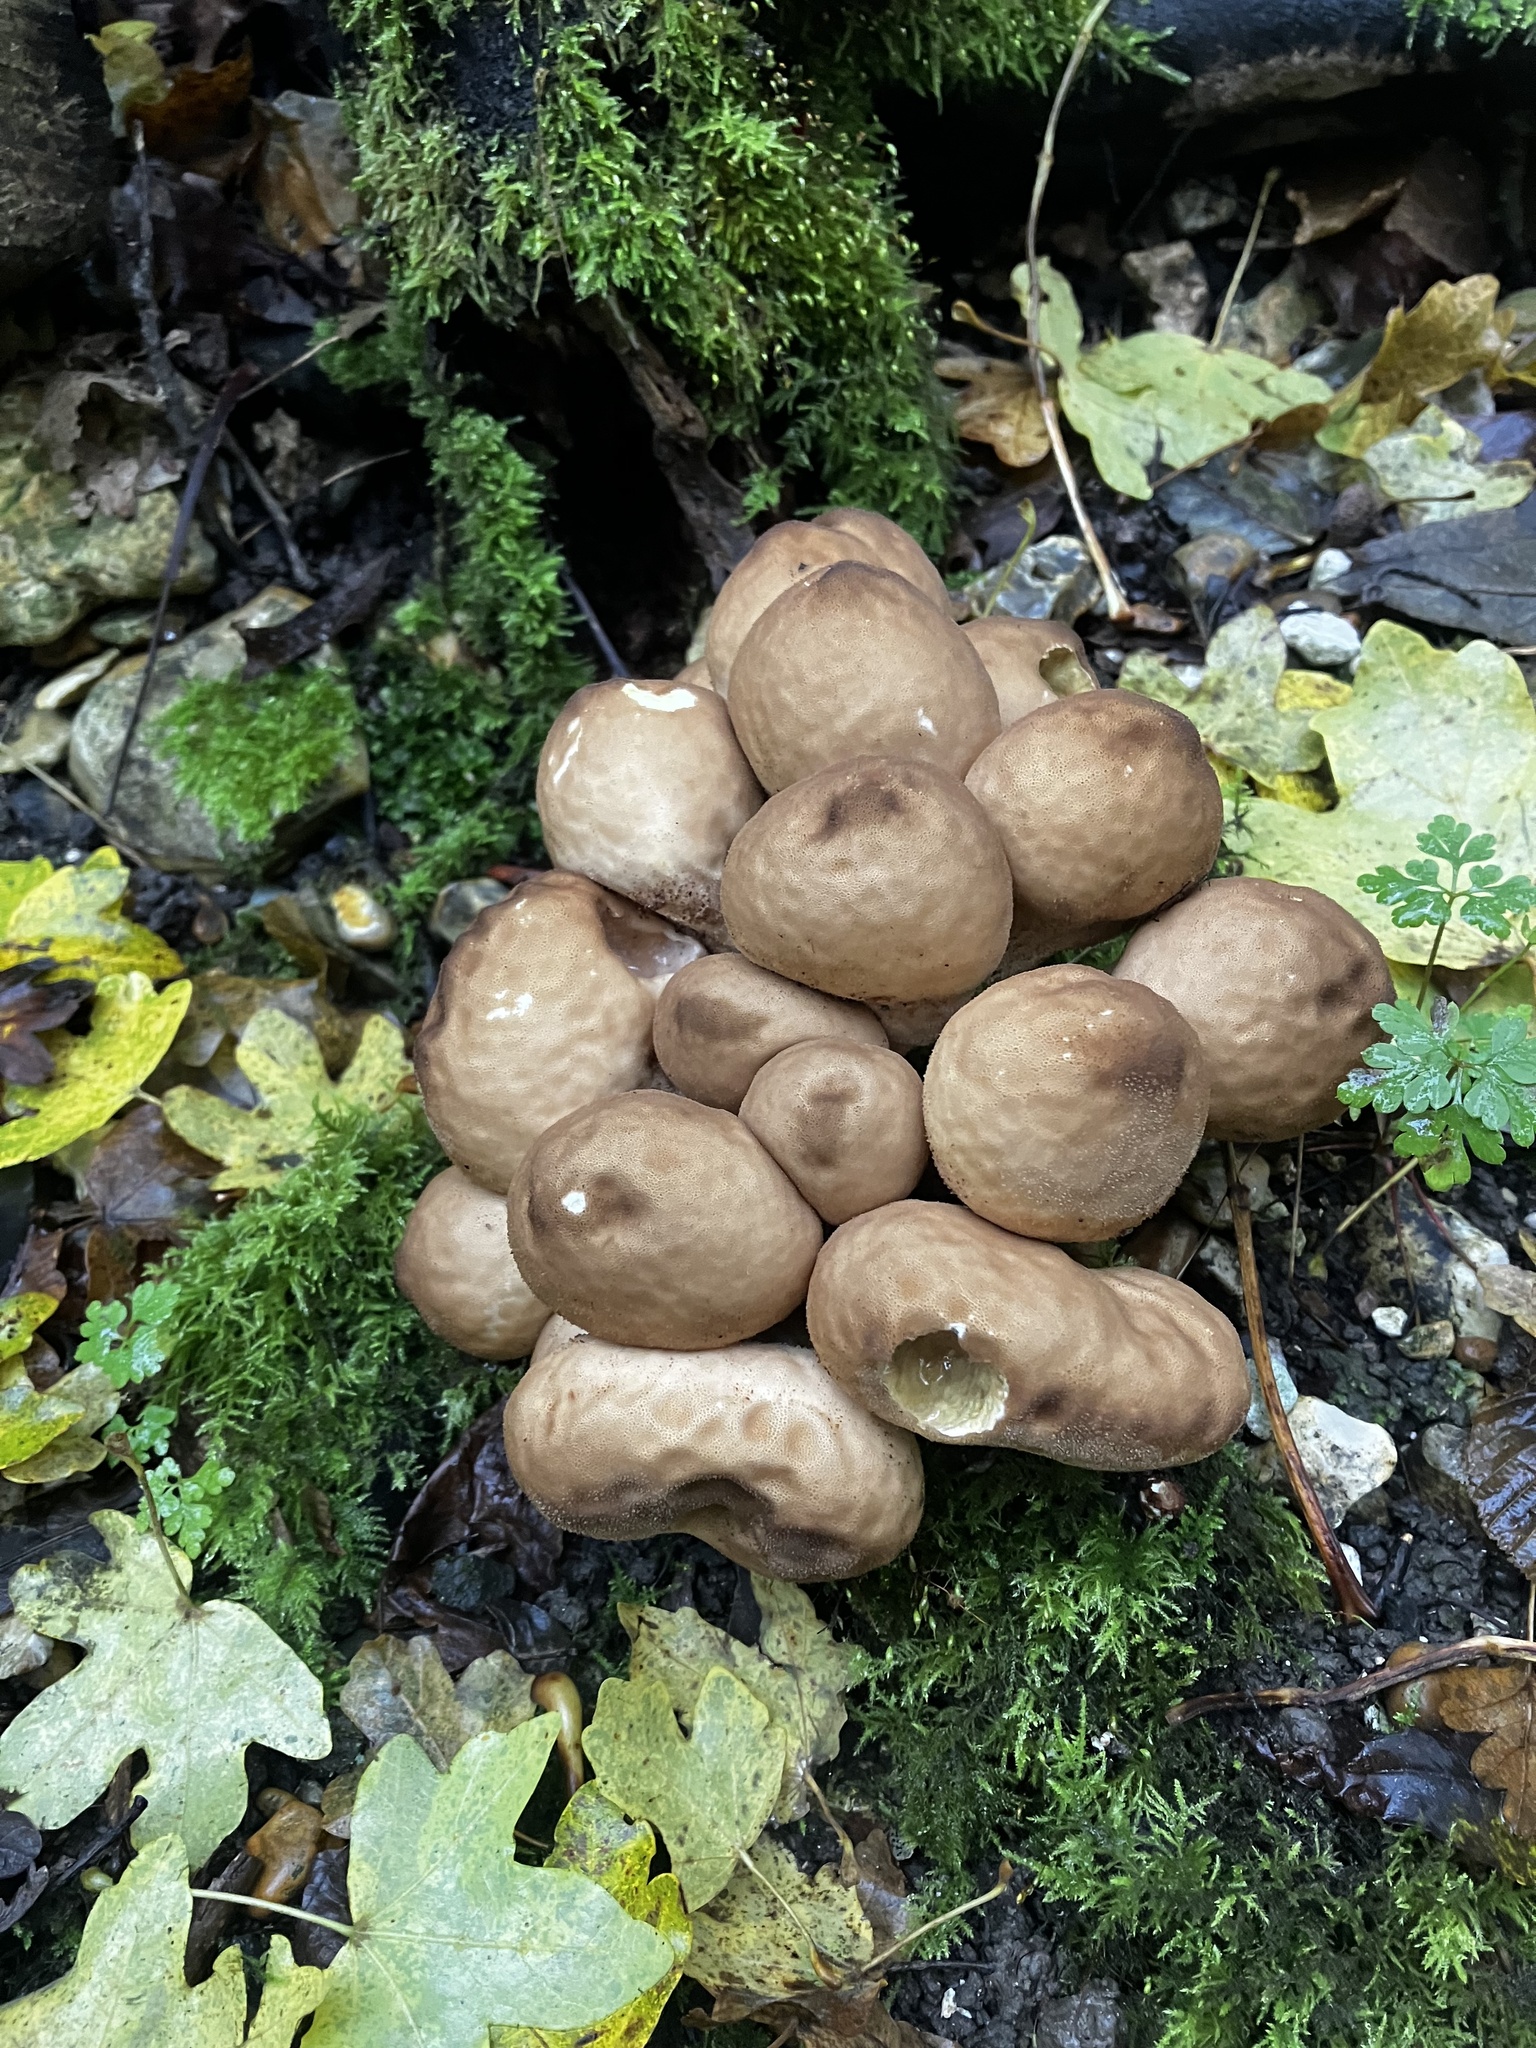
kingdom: Fungi
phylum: Basidiomycota
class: Agaricomycetes
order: Agaricales
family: Lycoperdaceae
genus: Apioperdon
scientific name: Apioperdon pyriforme
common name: Pear-shaped puffball
